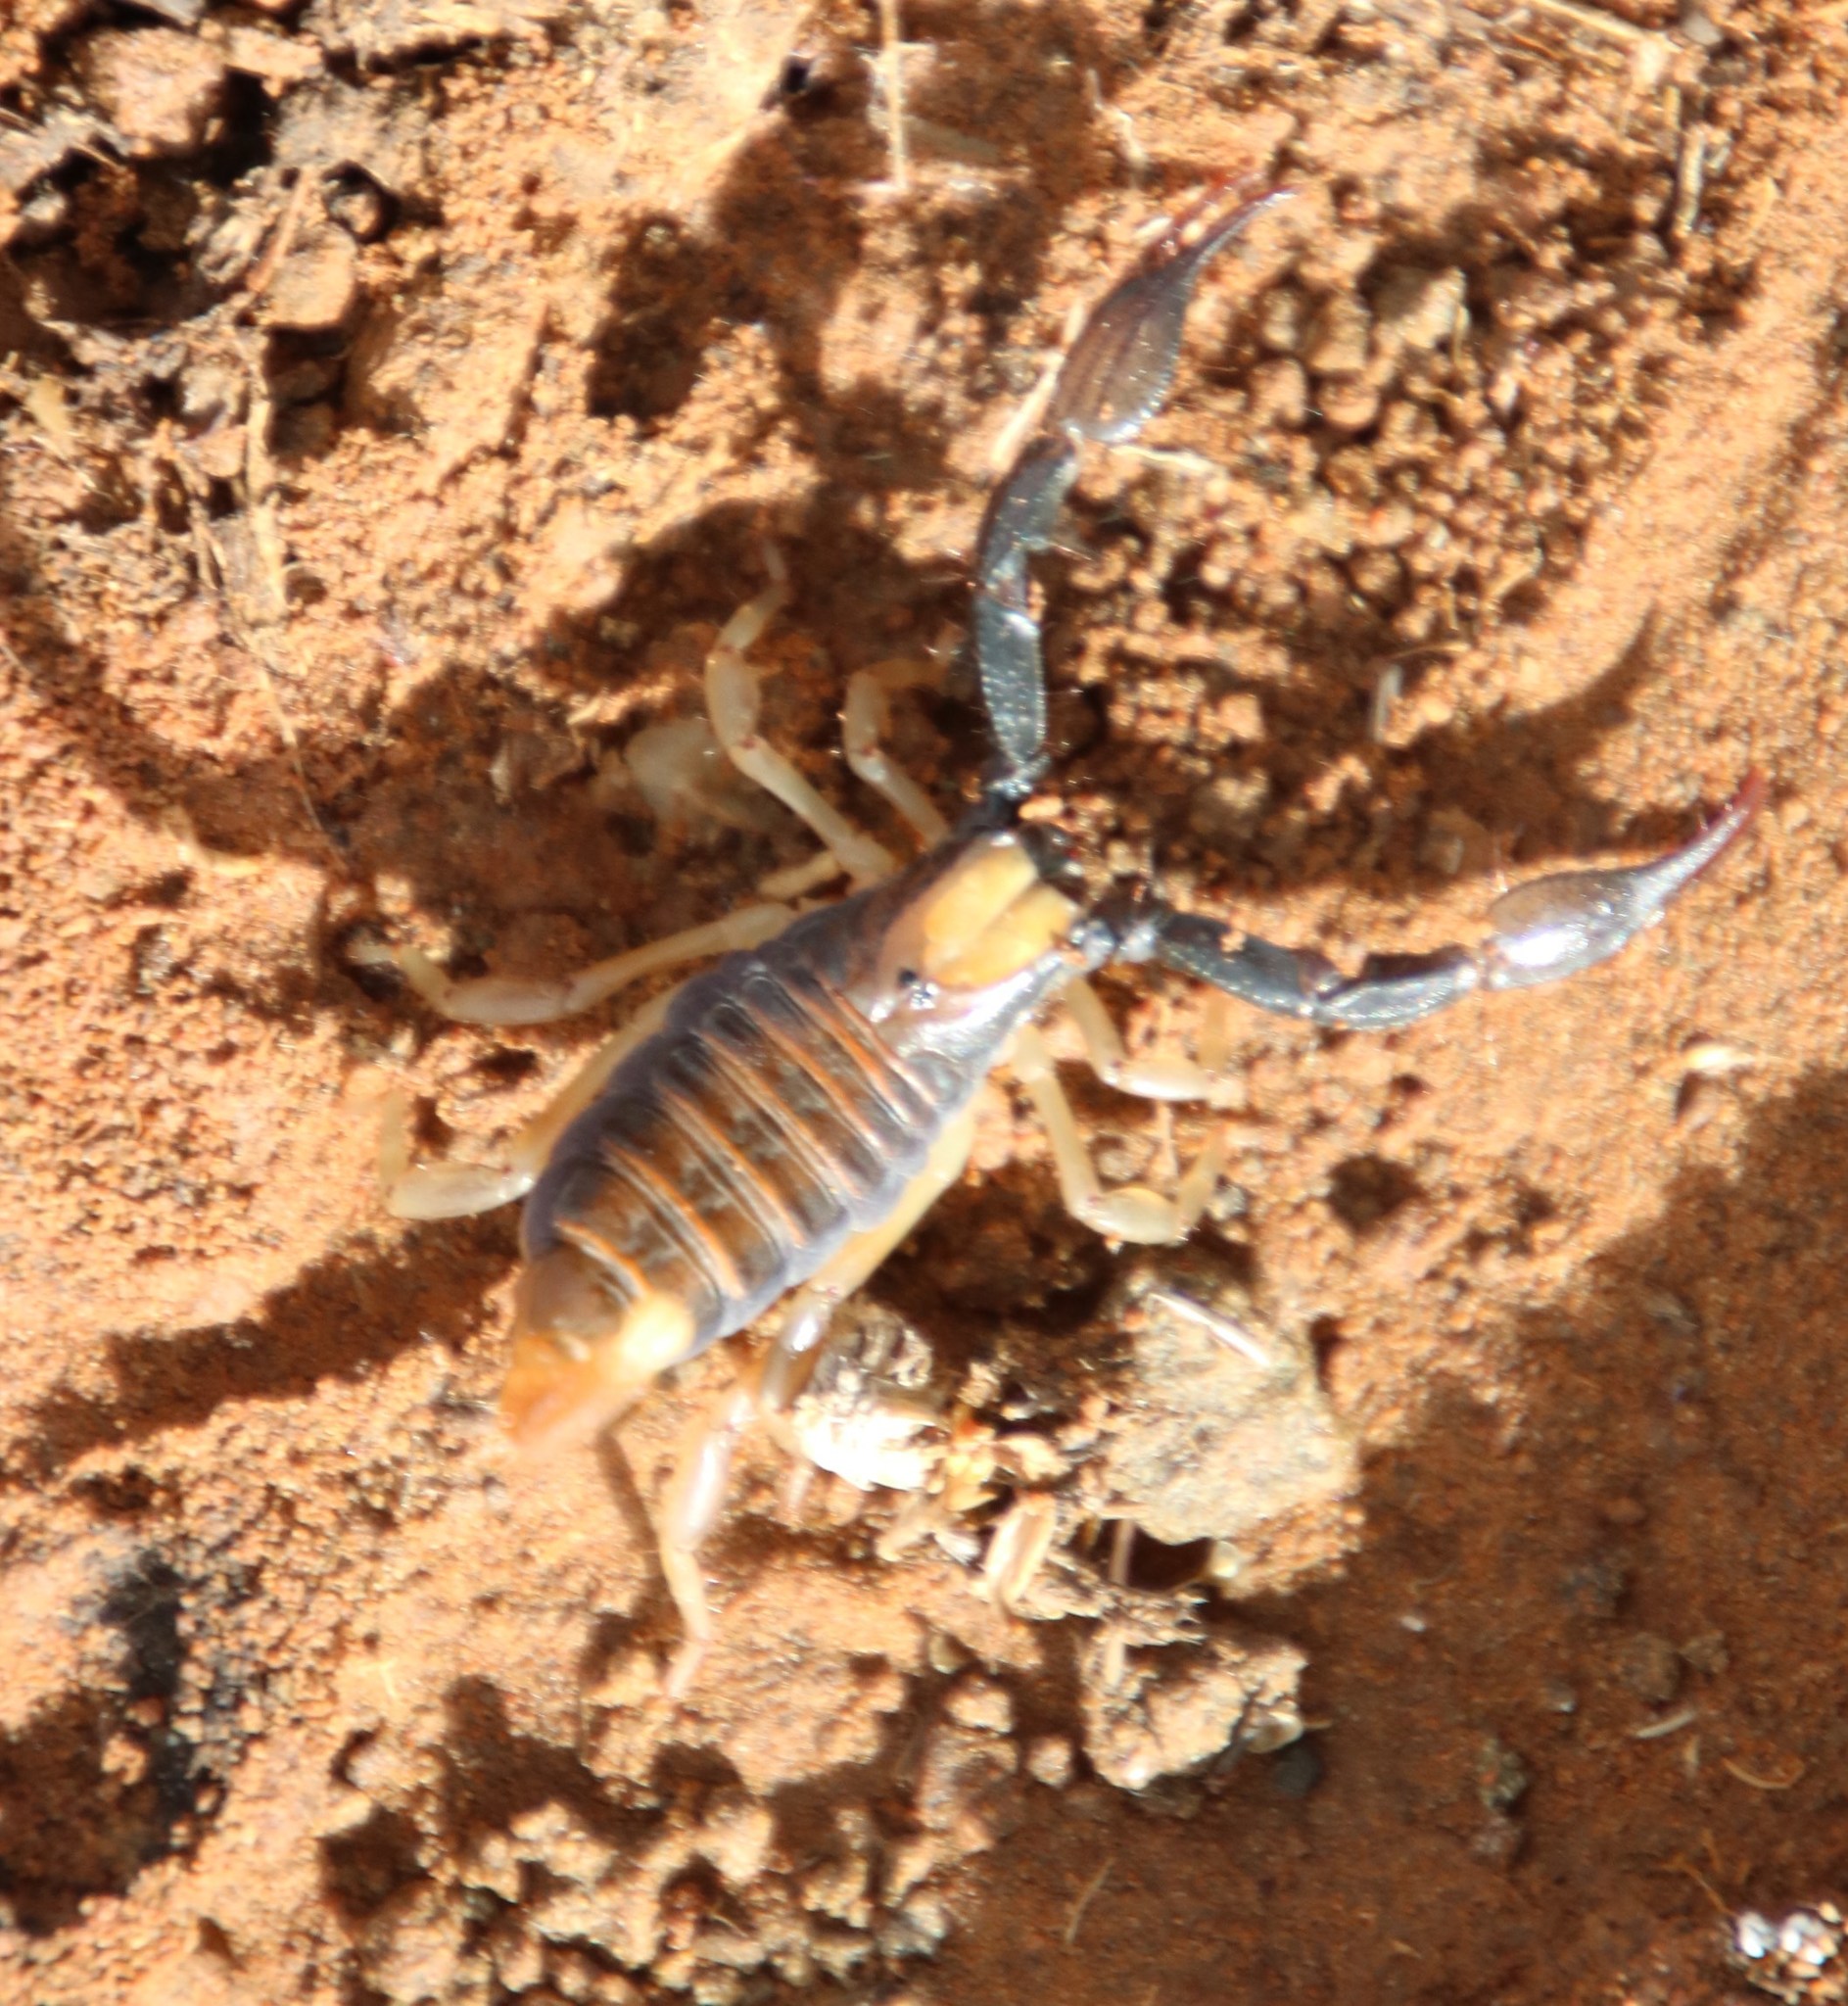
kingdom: Animalia
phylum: Arthropoda
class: Arachnida
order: Scorpiones
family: Scorpionidae
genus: Opistophthalmus
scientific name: Opistophthalmus karrooensis
